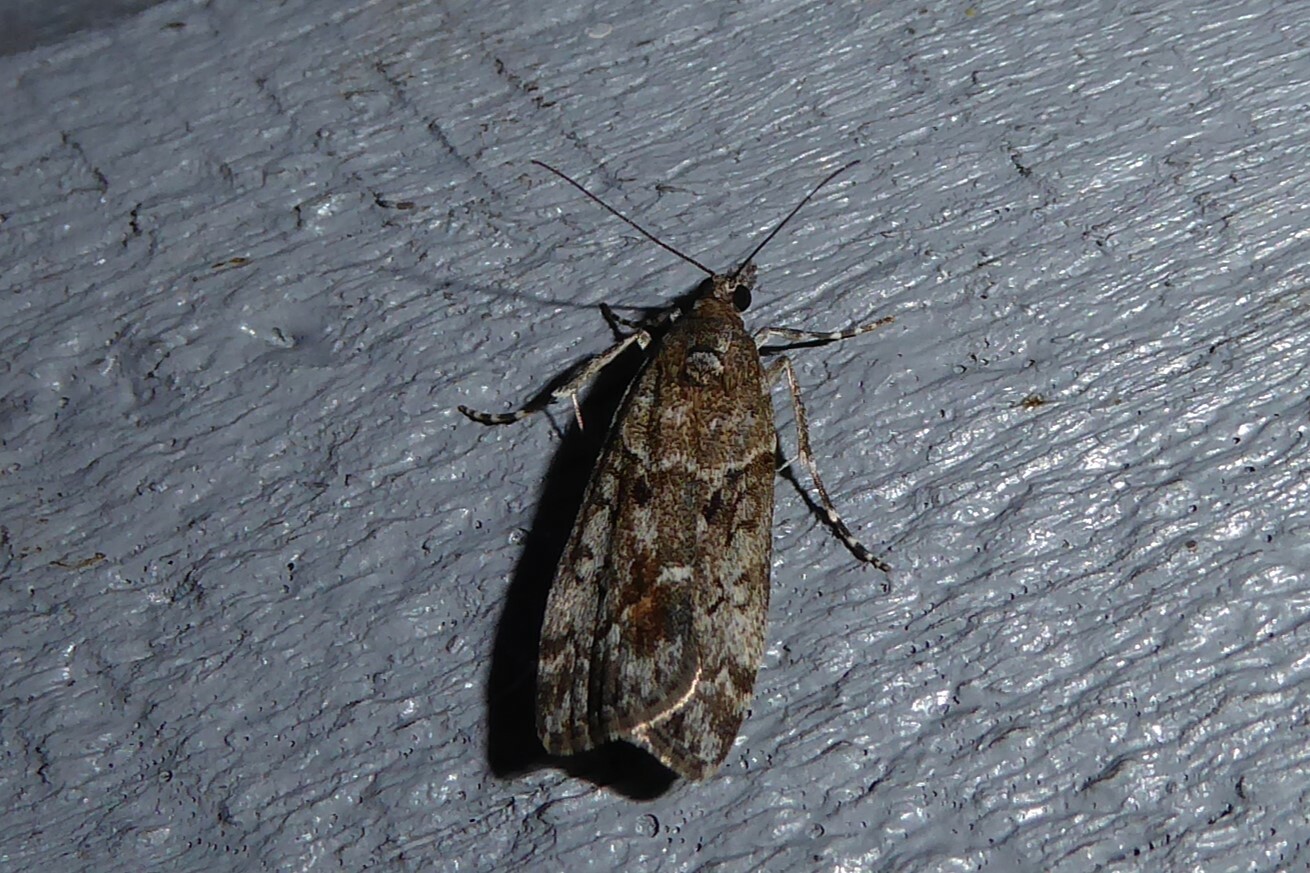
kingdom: Animalia
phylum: Arthropoda
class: Insecta
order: Lepidoptera
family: Crambidae
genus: Eudonia
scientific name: Eudonia submarginalis
